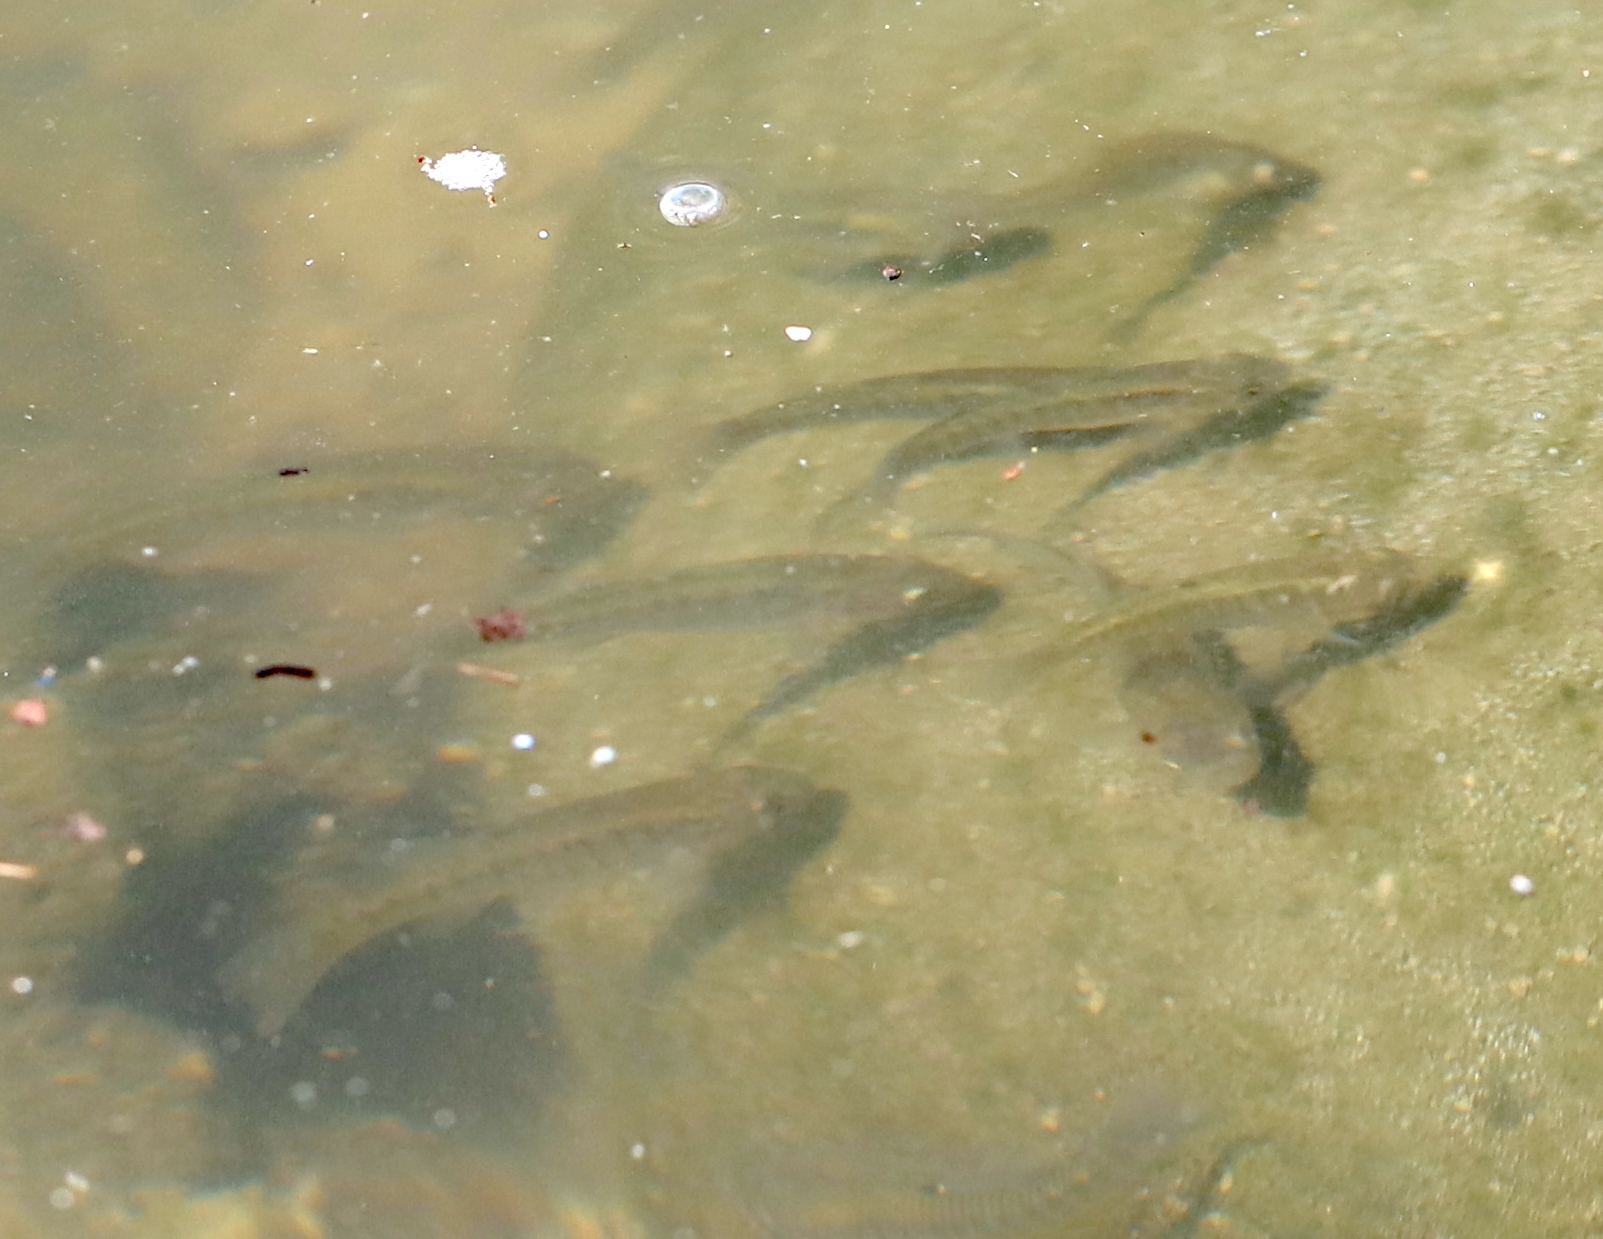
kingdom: Animalia
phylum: Chordata
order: Cyprinodontiformes
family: Fundulidae
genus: Fundulus
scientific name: Fundulus heteroclitus
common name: Mummichog
